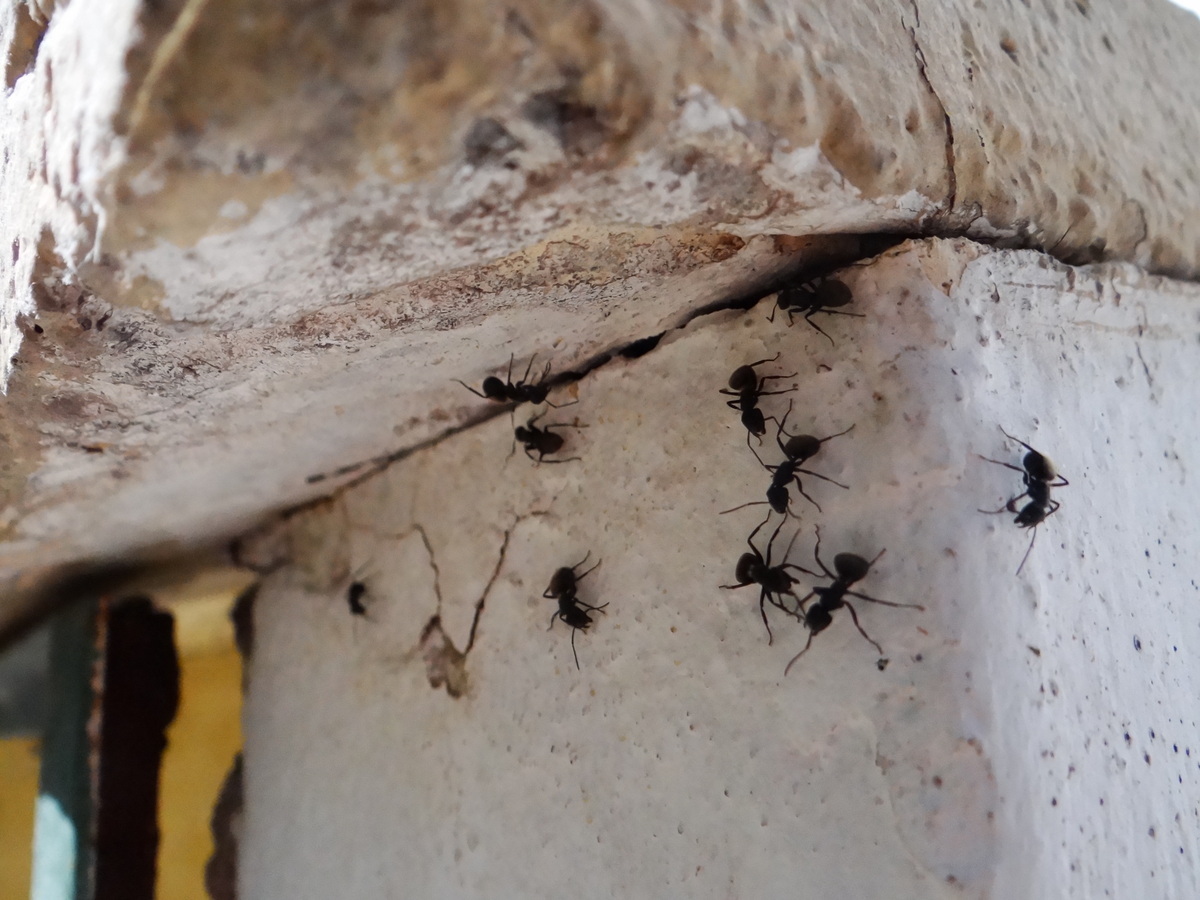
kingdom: Animalia
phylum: Arthropoda
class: Insecta
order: Hymenoptera
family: Formicidae
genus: Camponotus
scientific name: Camponotus mus
